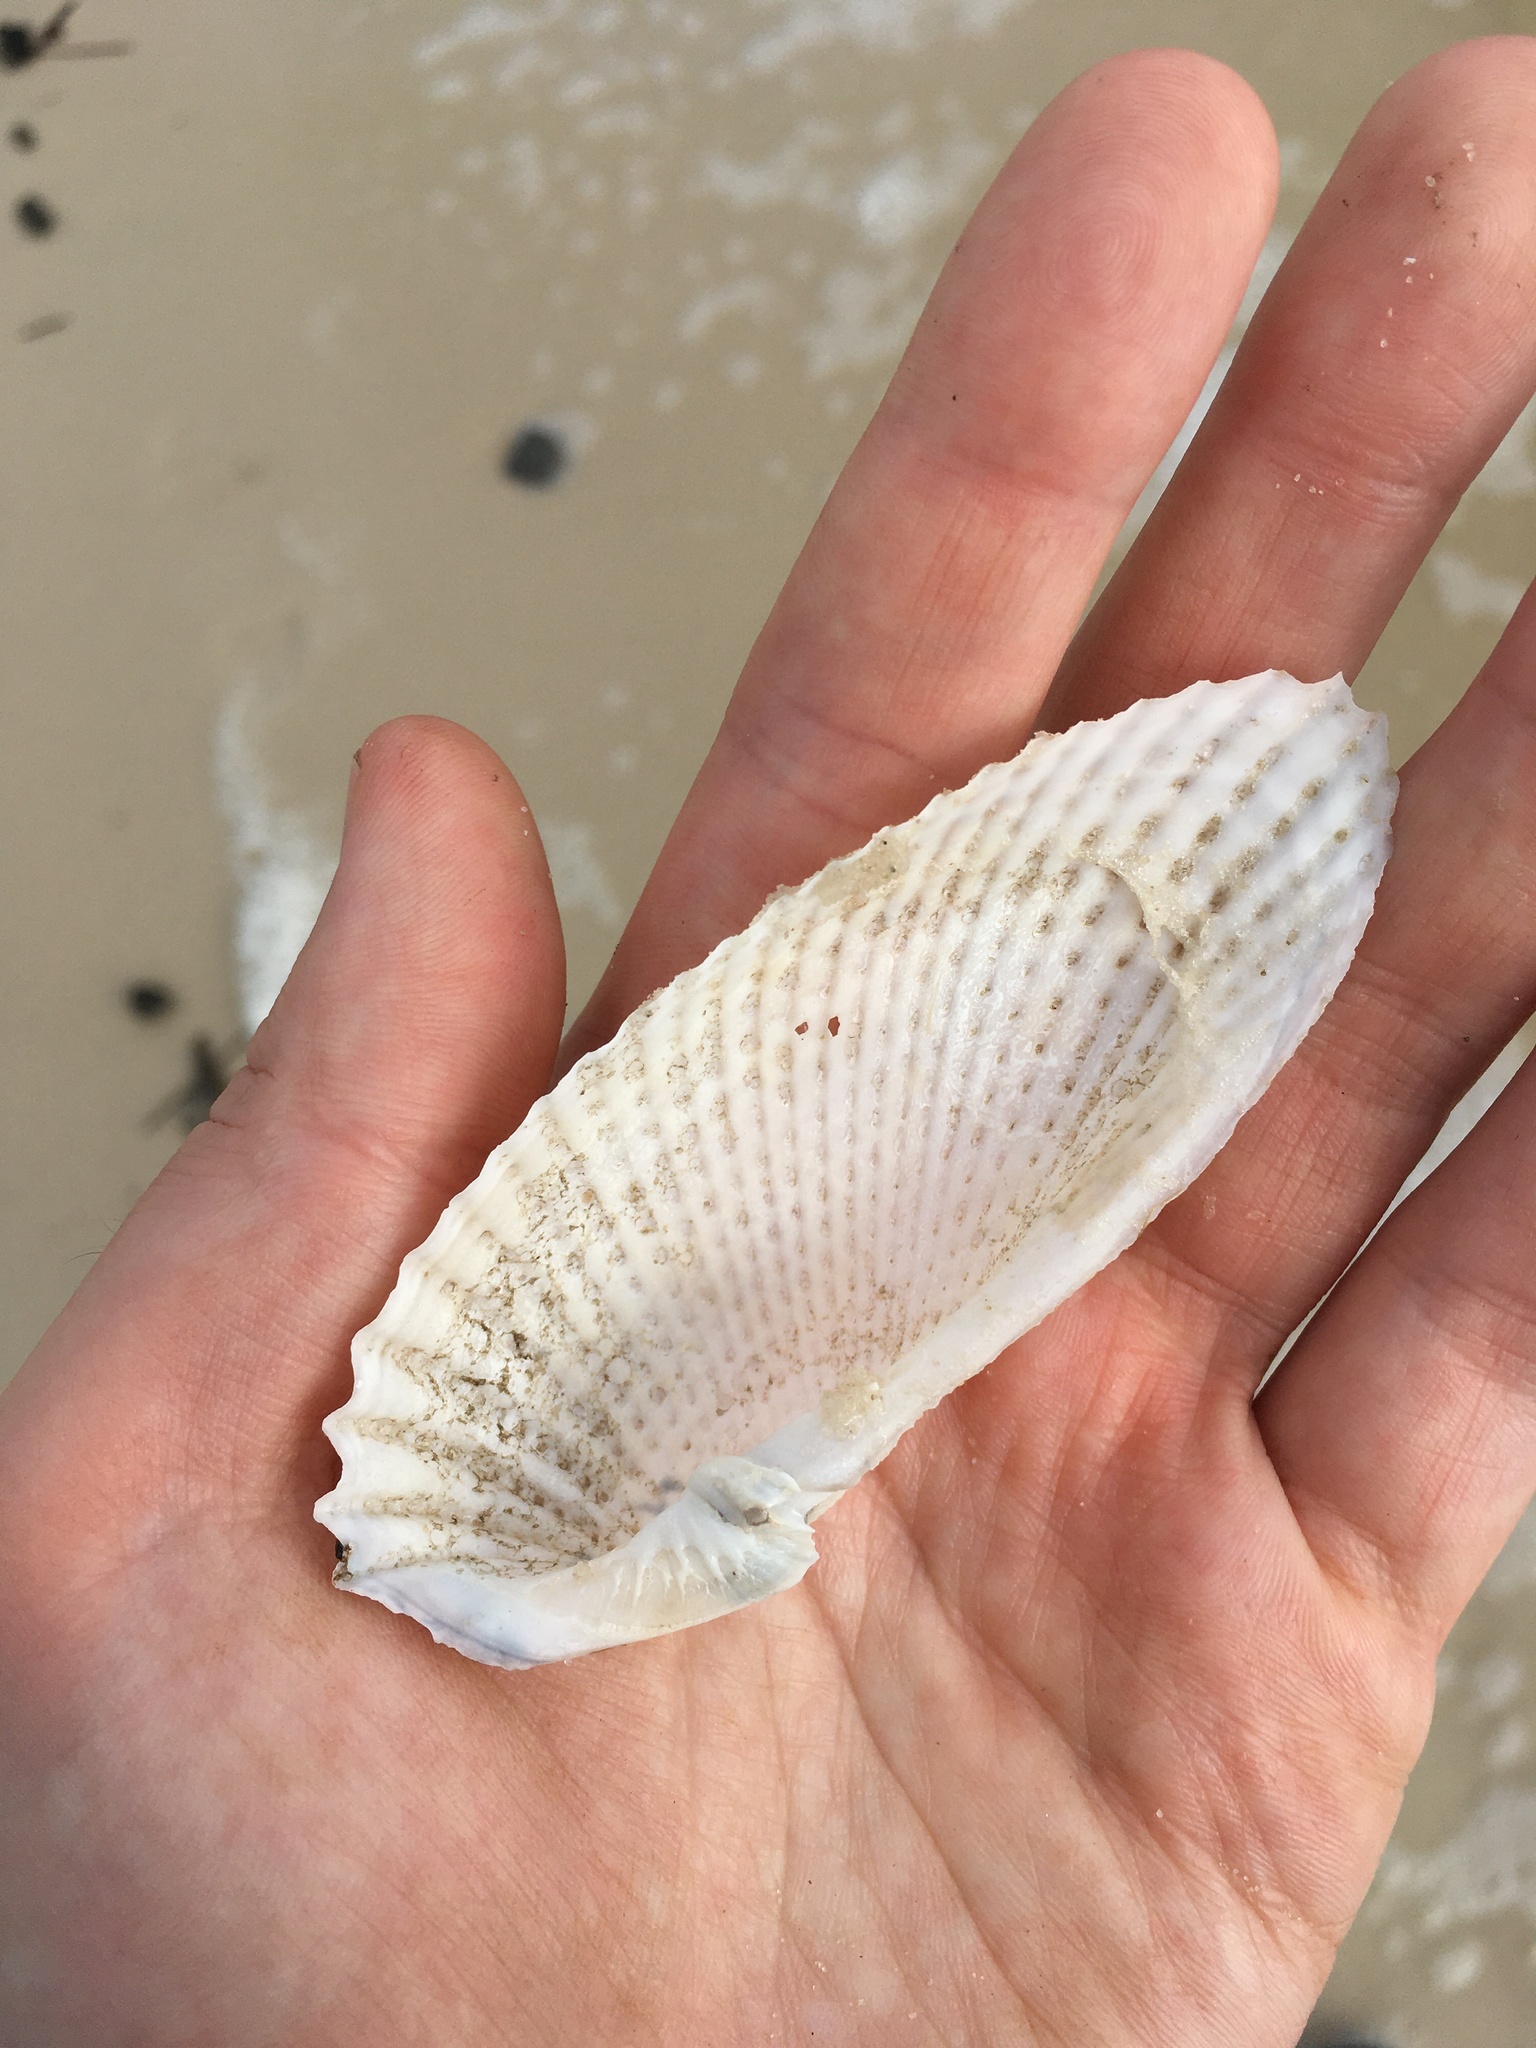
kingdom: Animalia
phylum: Mollusca
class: Bivalvia
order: Myida
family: Pholadidae
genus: Cyrtopleura
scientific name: Cyrtopleura costata
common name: Angel wing
